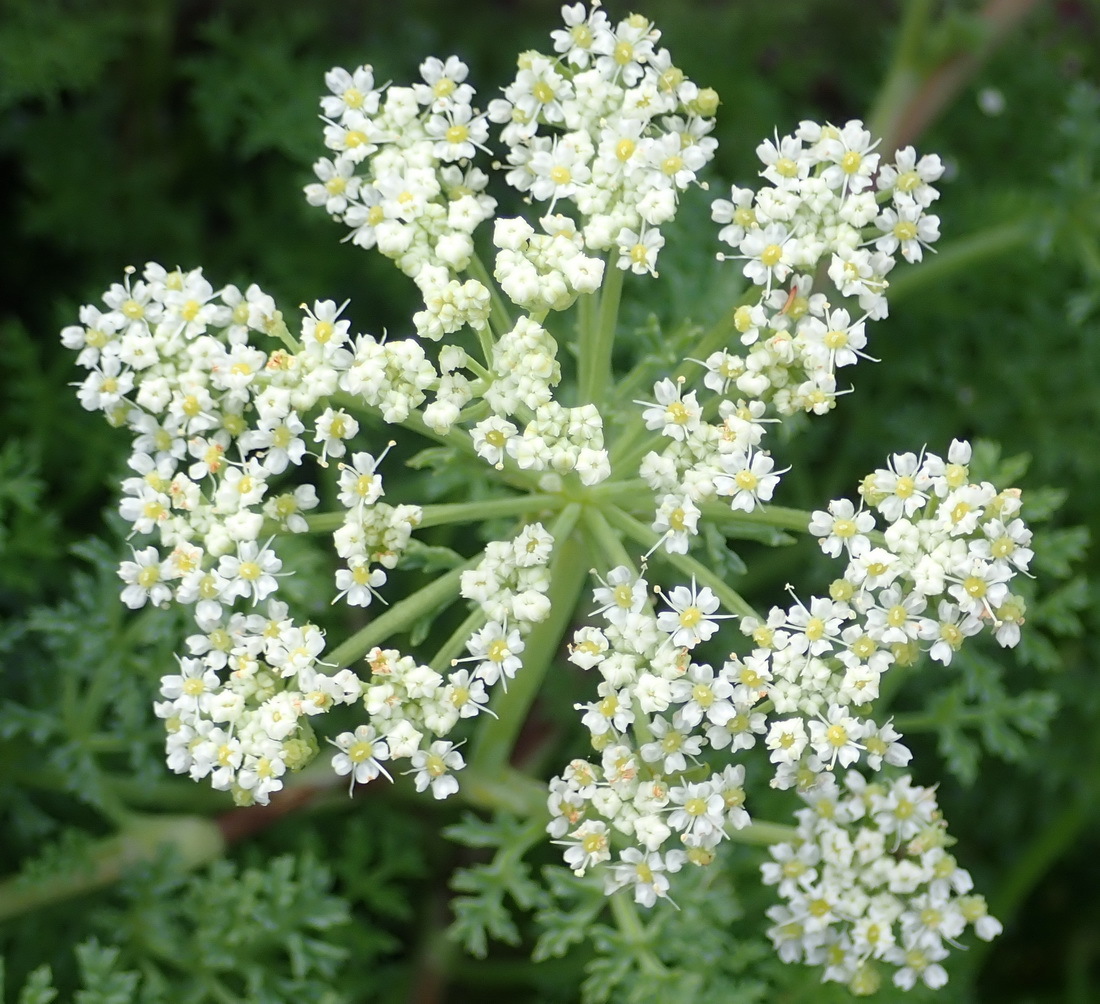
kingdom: Plantae
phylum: Tracheophyta
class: Magnoliopsida
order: Apiales
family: Apiaceae
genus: Dasispermum
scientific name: Dasispermum suffruticosum
